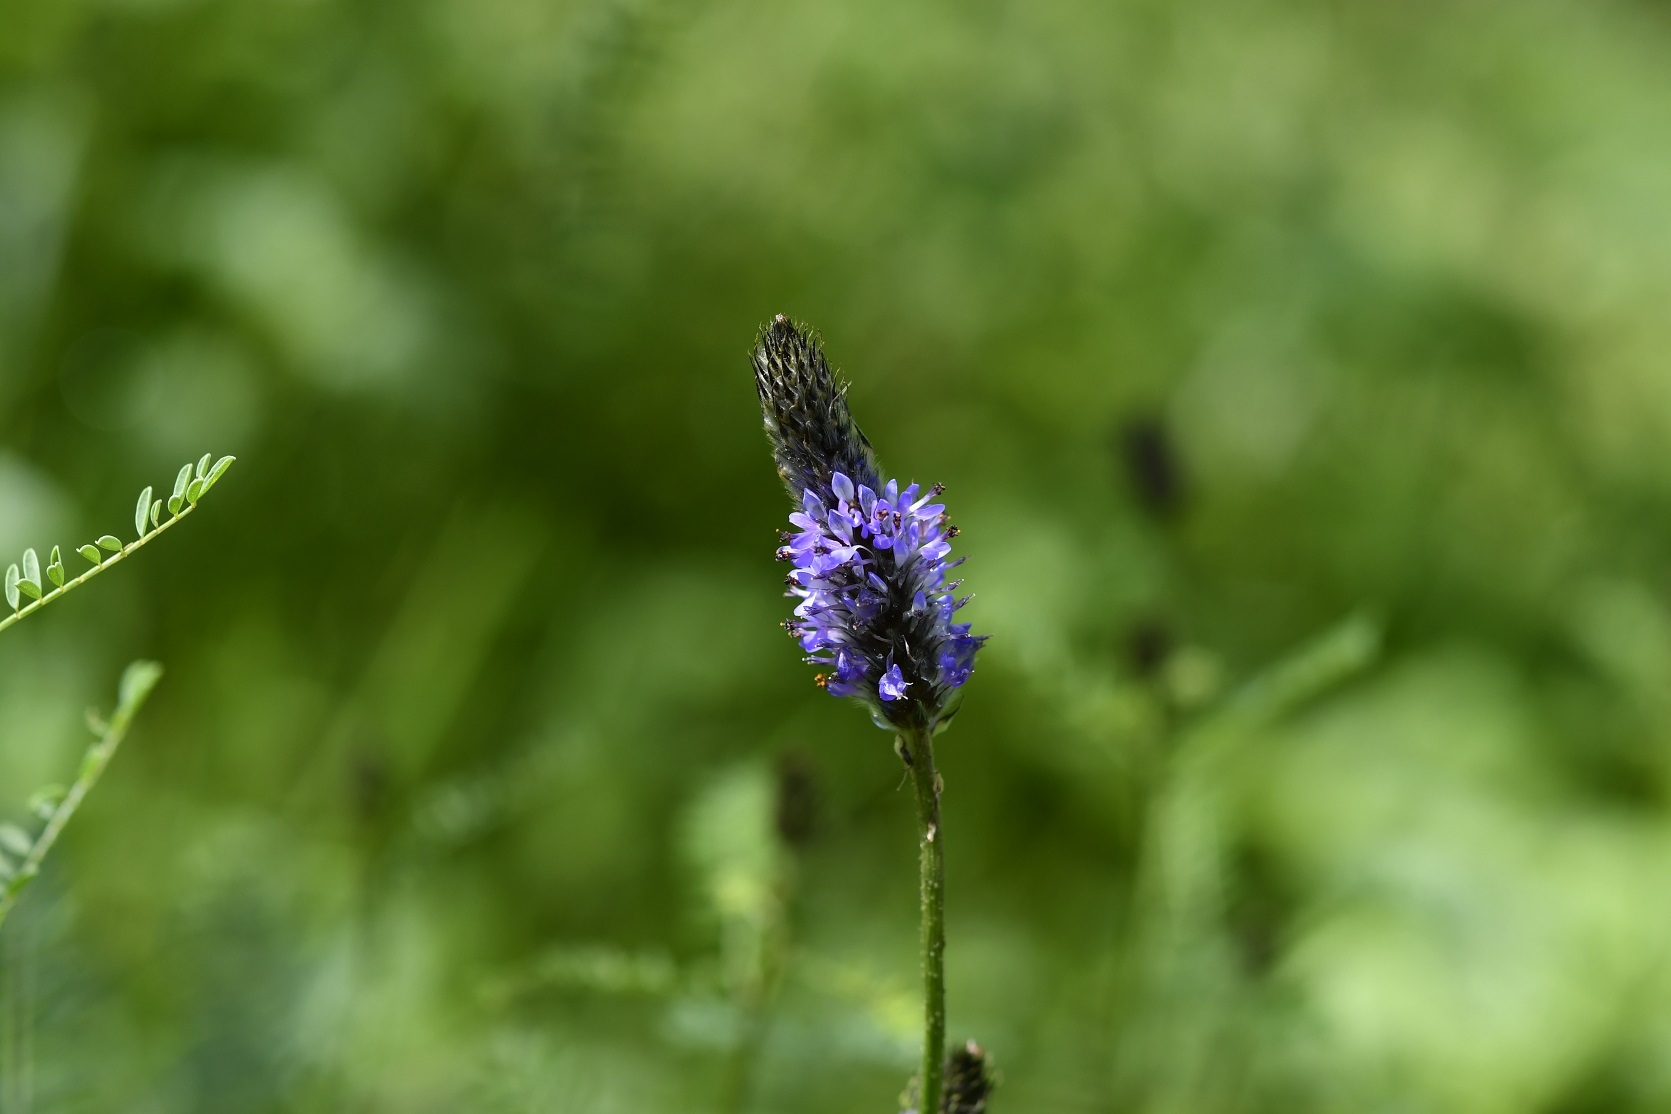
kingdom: Plantae
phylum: Tracheophyta
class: Magnoliopsida
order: Fabales
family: Fabaceae
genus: Dalea
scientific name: Dalea leporina
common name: Foxtail dalea
